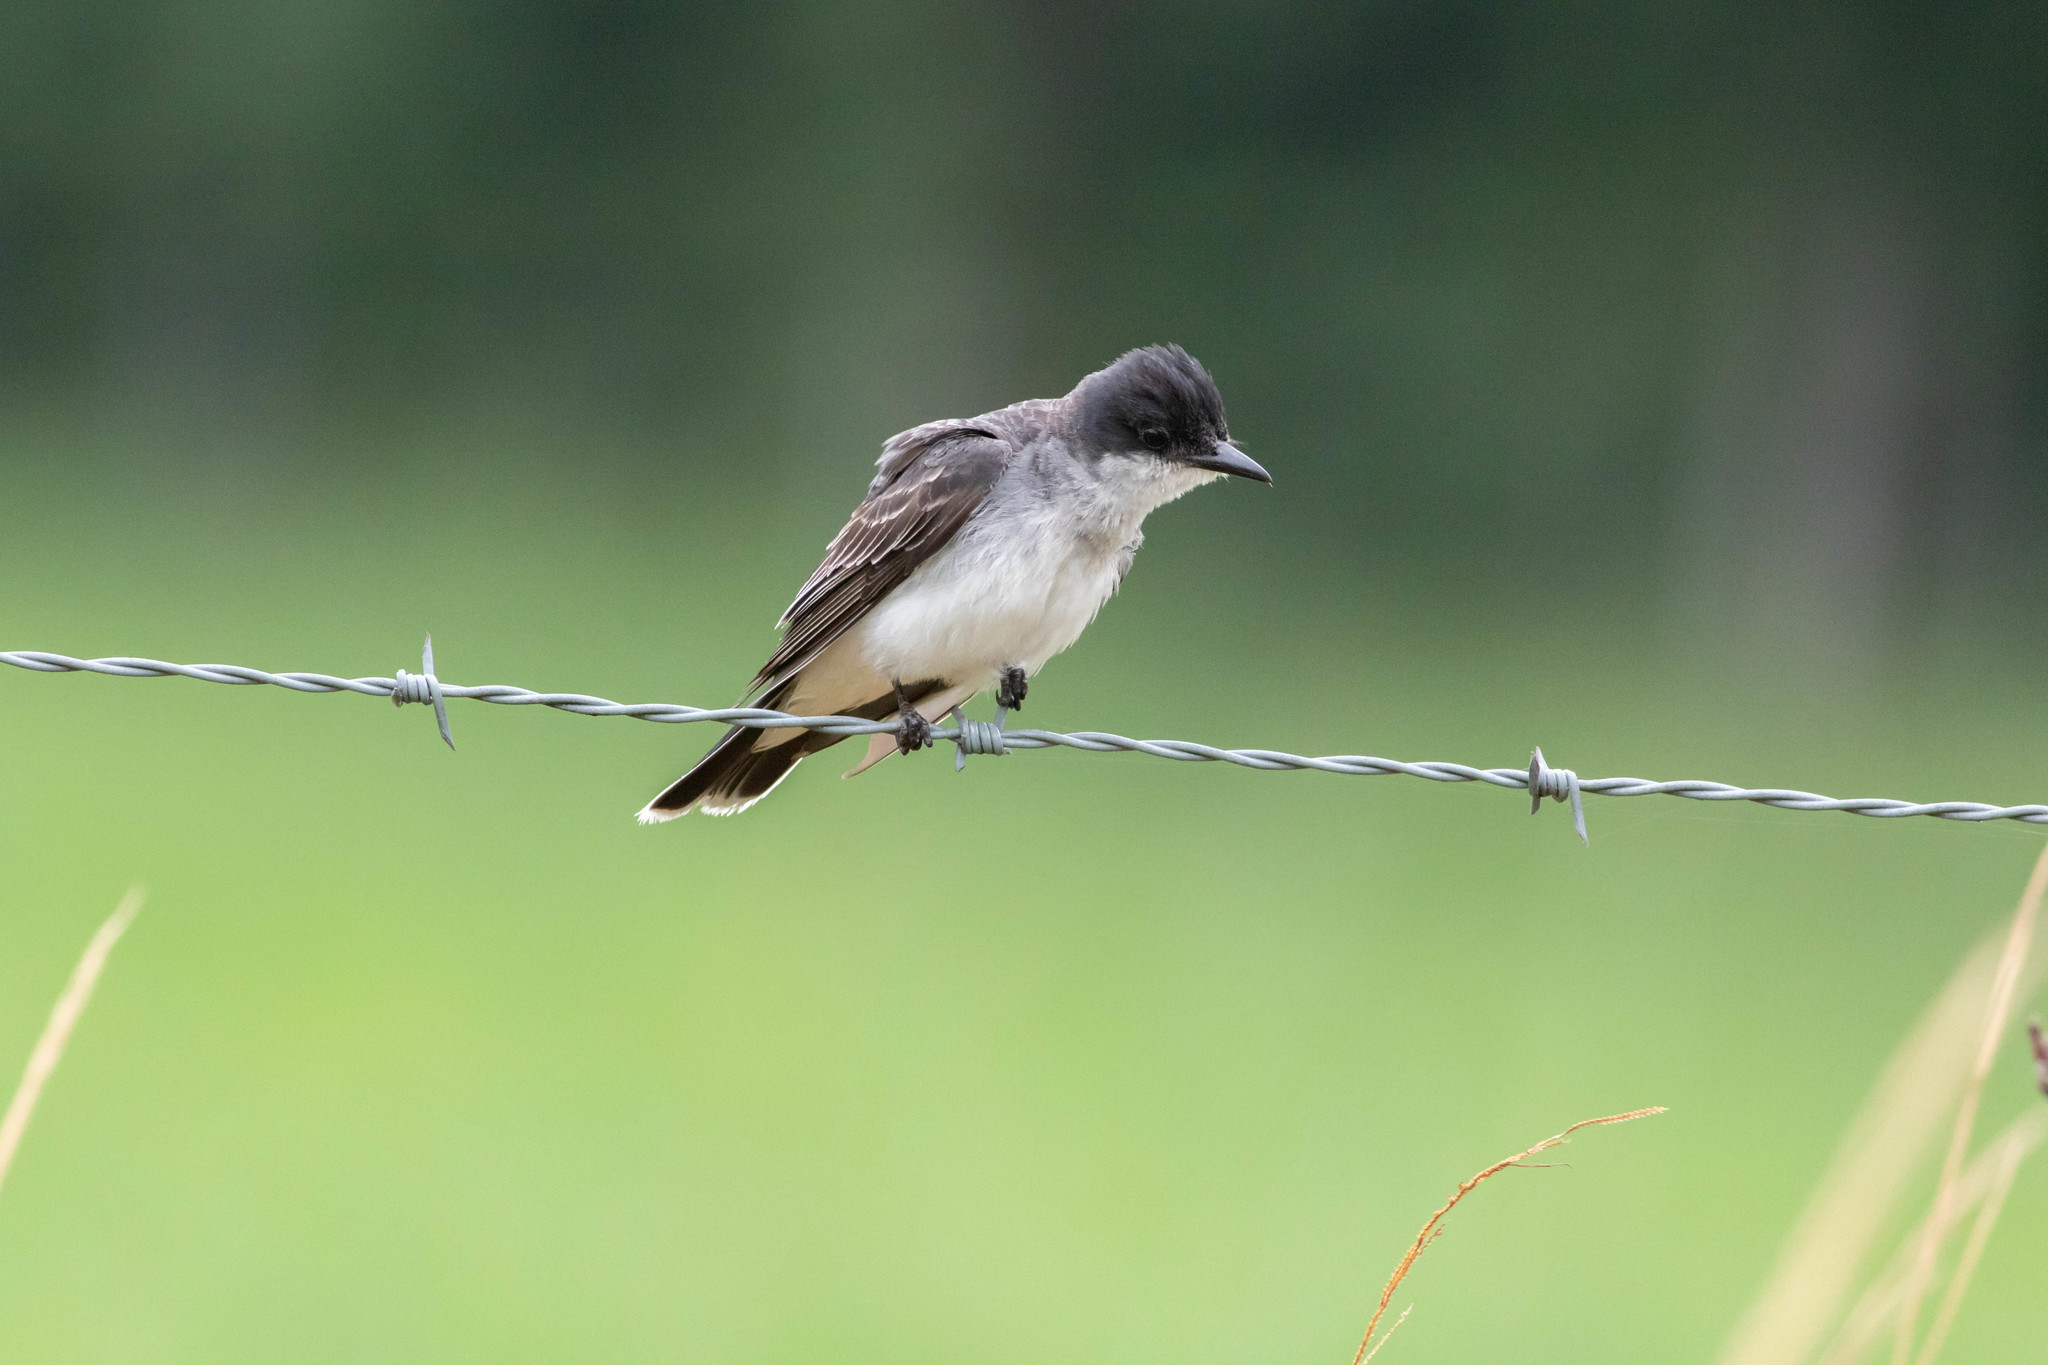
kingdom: Animalia
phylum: Chordata
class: Aves
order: Passeriformes
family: Tyrannidae
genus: Tyrannus
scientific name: Tyrannus tyrannus
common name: Eastern kingbird
